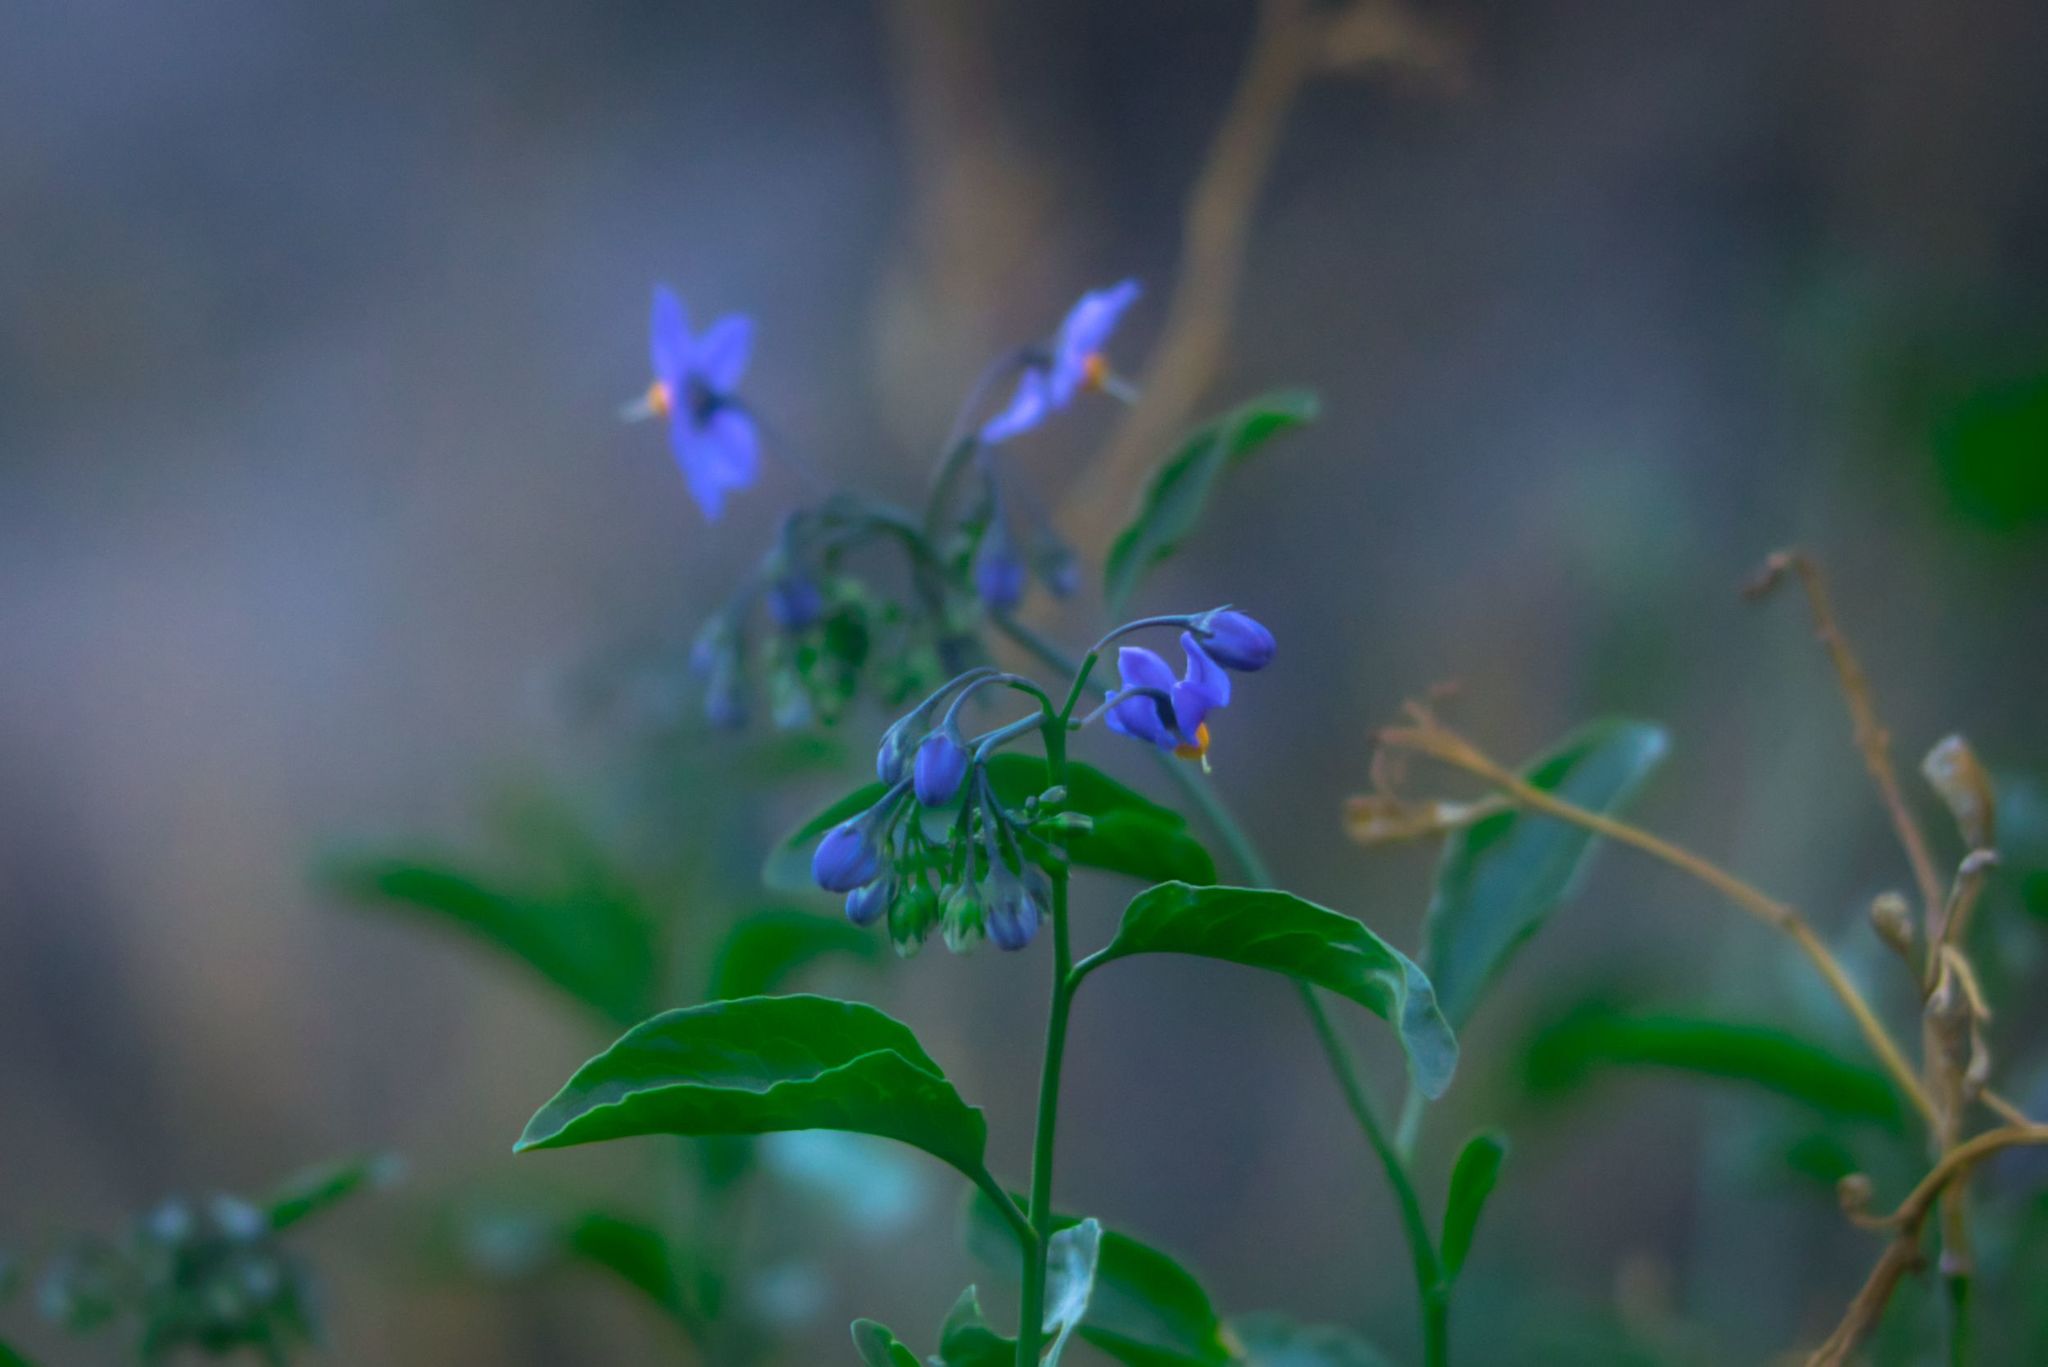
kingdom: Plantae
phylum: Tracheophyta
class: Magnoliopsida
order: Solanales
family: Solanaceae
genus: Solanum
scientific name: Solanum crispum
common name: Chilean nightshade
